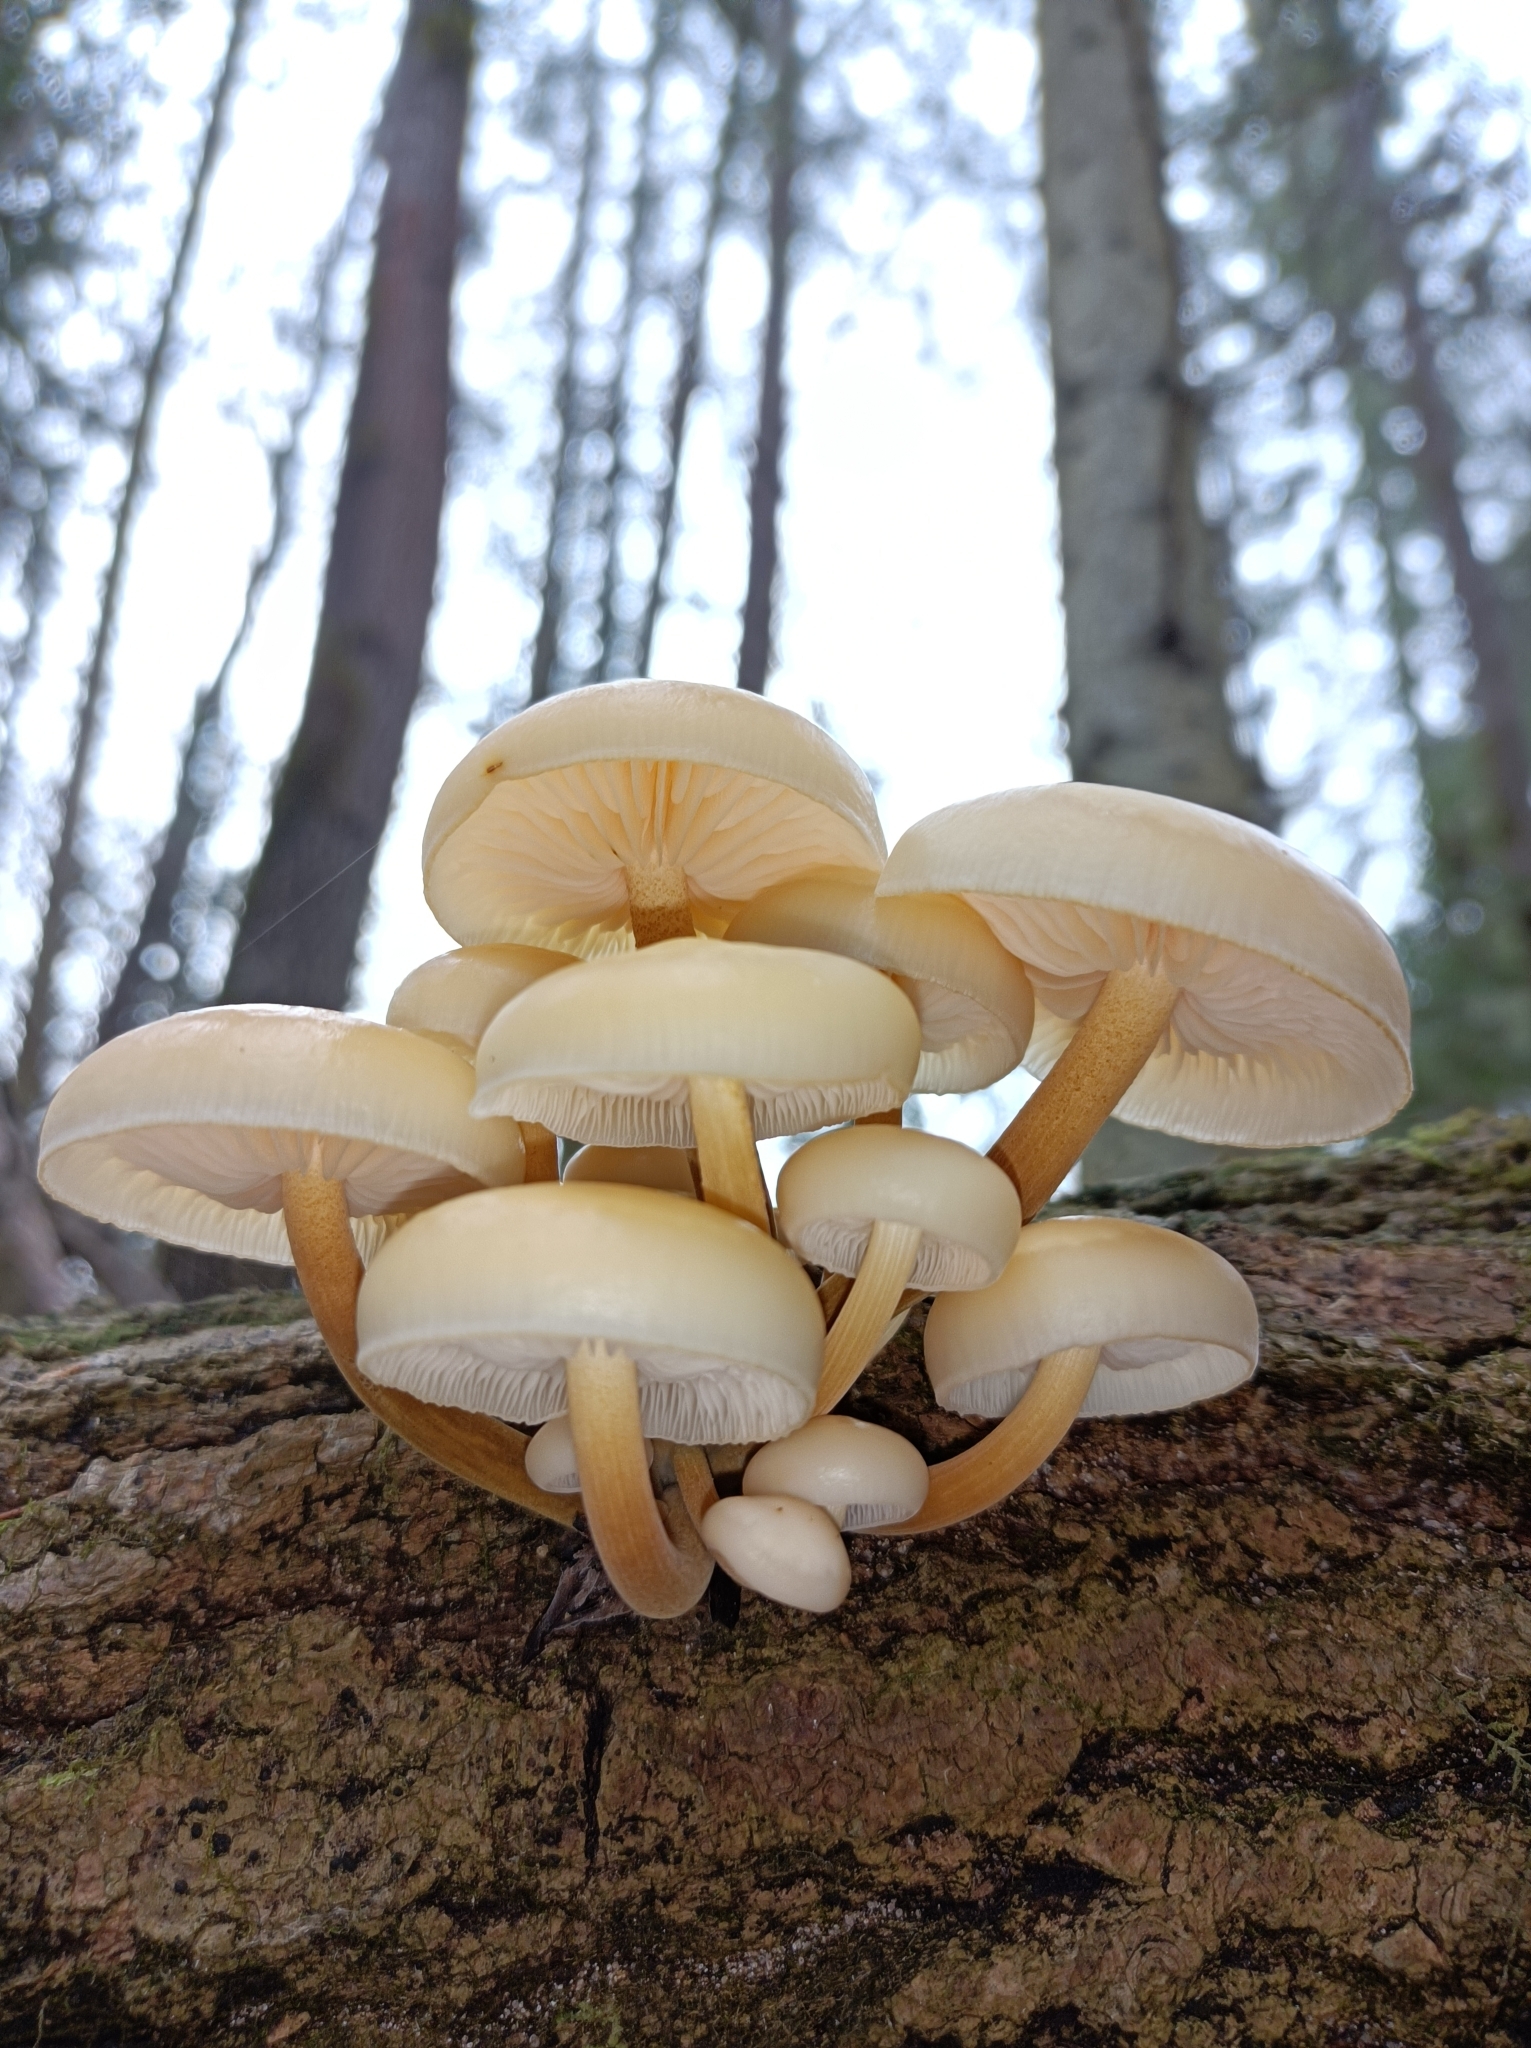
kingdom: Fungi
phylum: Basidiomycota
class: Agaricomycetes
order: Agaricales
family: Physalacriaceae
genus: Flammulina
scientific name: Flammulina
